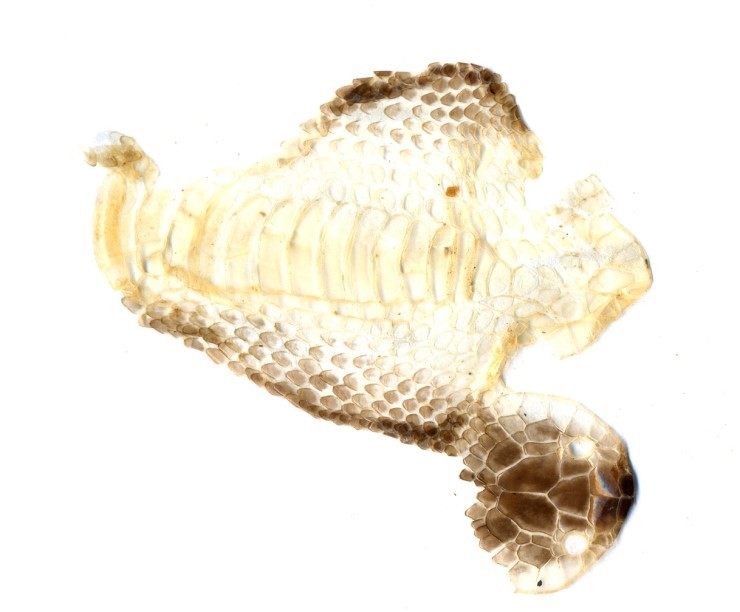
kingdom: Animalia
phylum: Chordata
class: Squamata
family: Colubridae
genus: Lycodon
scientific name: Lycodon rufozonatus
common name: Red-banded snake
